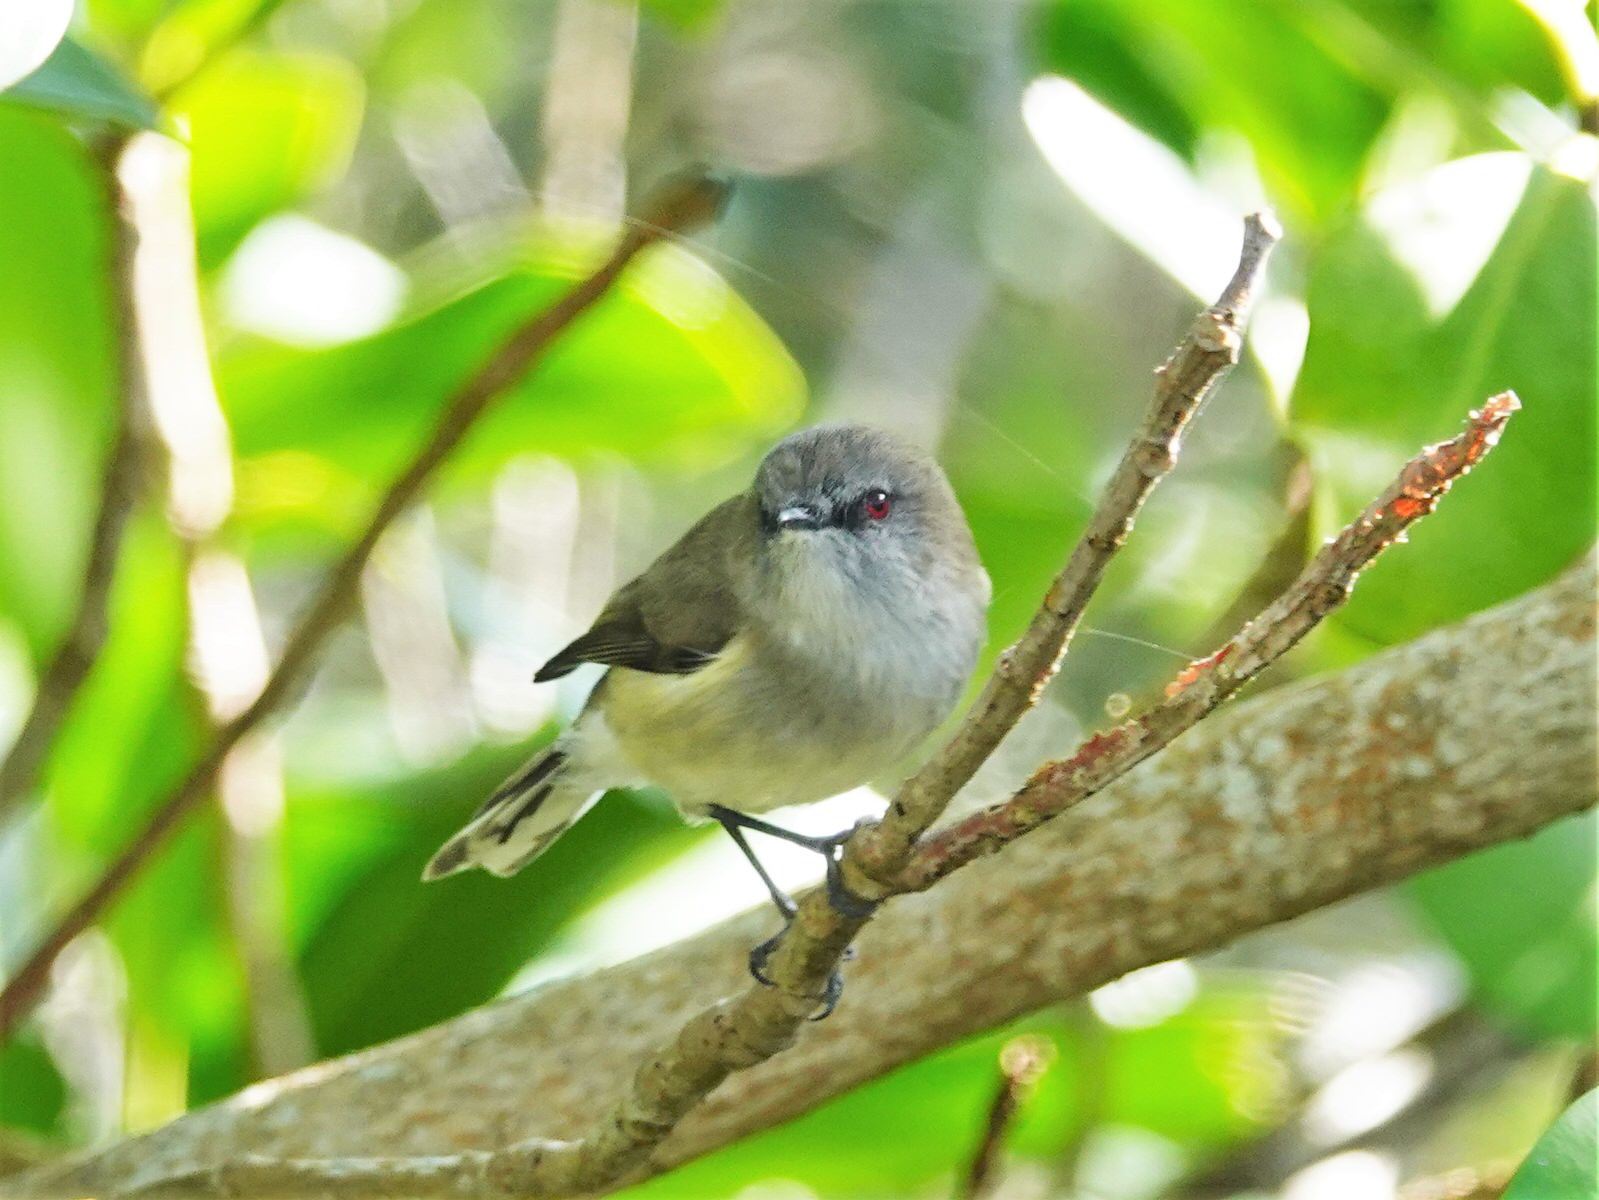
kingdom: Animalia
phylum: Chordata
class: Aves
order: Passeriformes
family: Acanthizidae
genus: Gerygone
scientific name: Gerygone igata
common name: Grey gerygone
